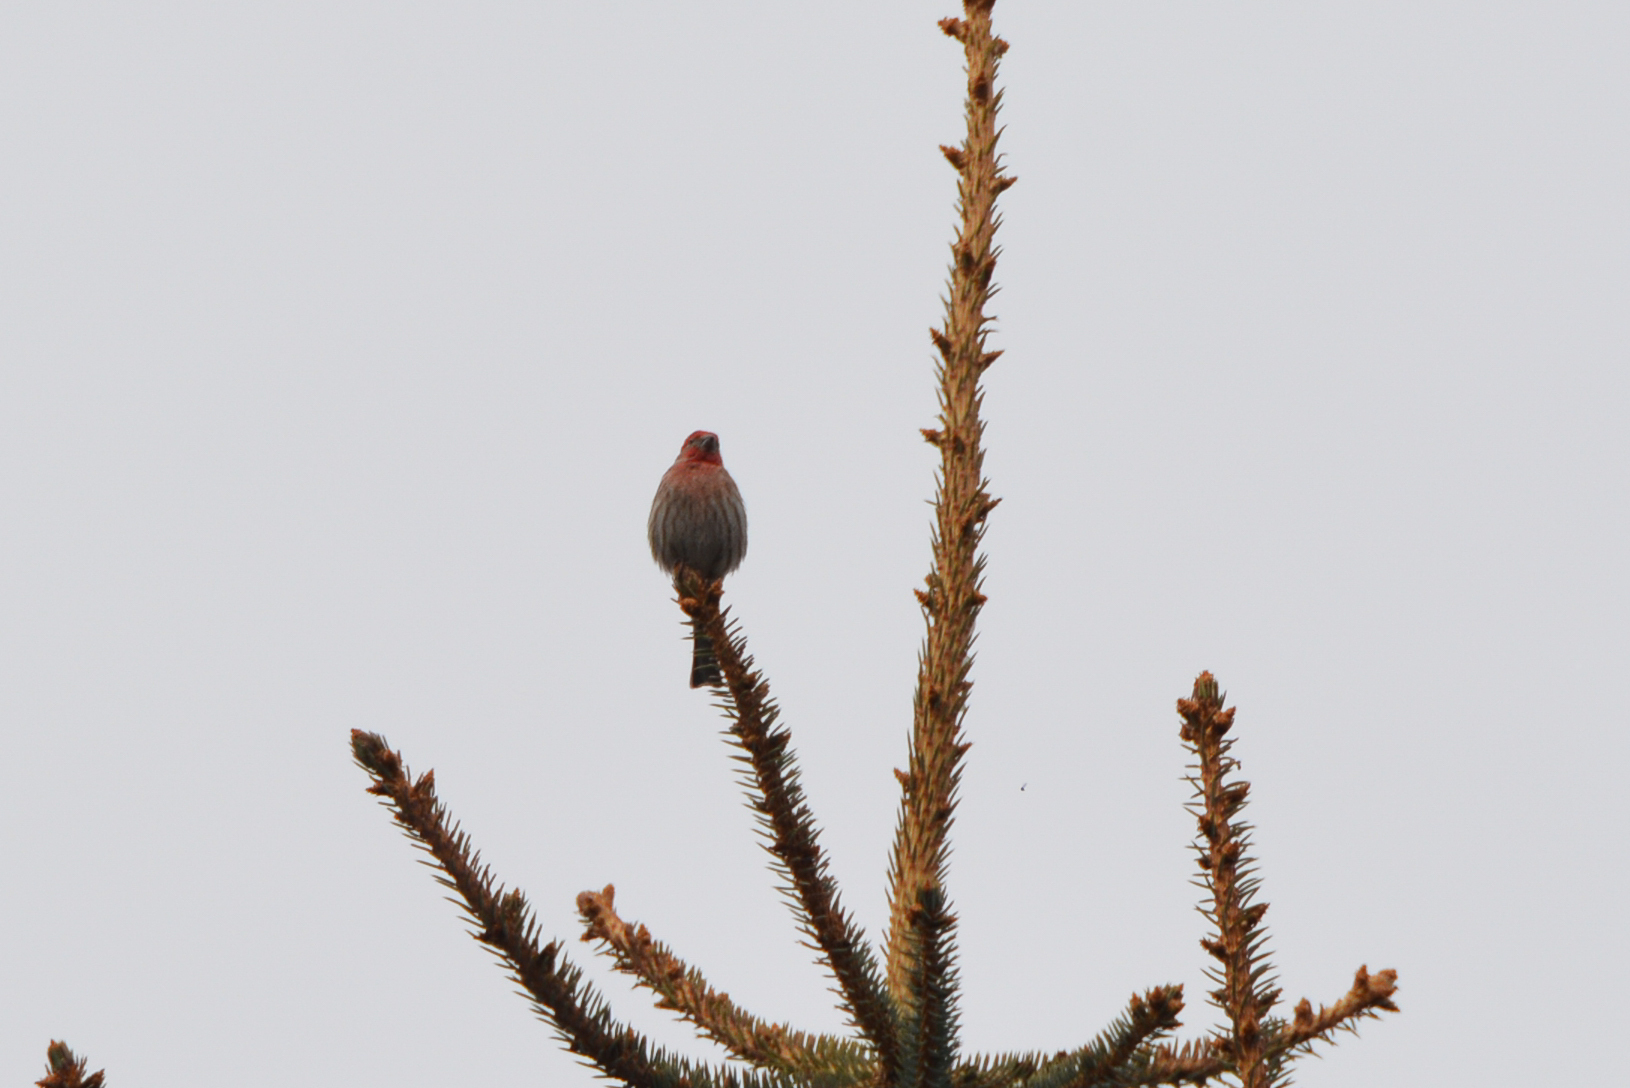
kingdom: Animalia
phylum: Chordata
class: Aves
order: Passeriformes
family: Fringillidae
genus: Haemorhous
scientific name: Haemorhous mexicanus
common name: House finch
